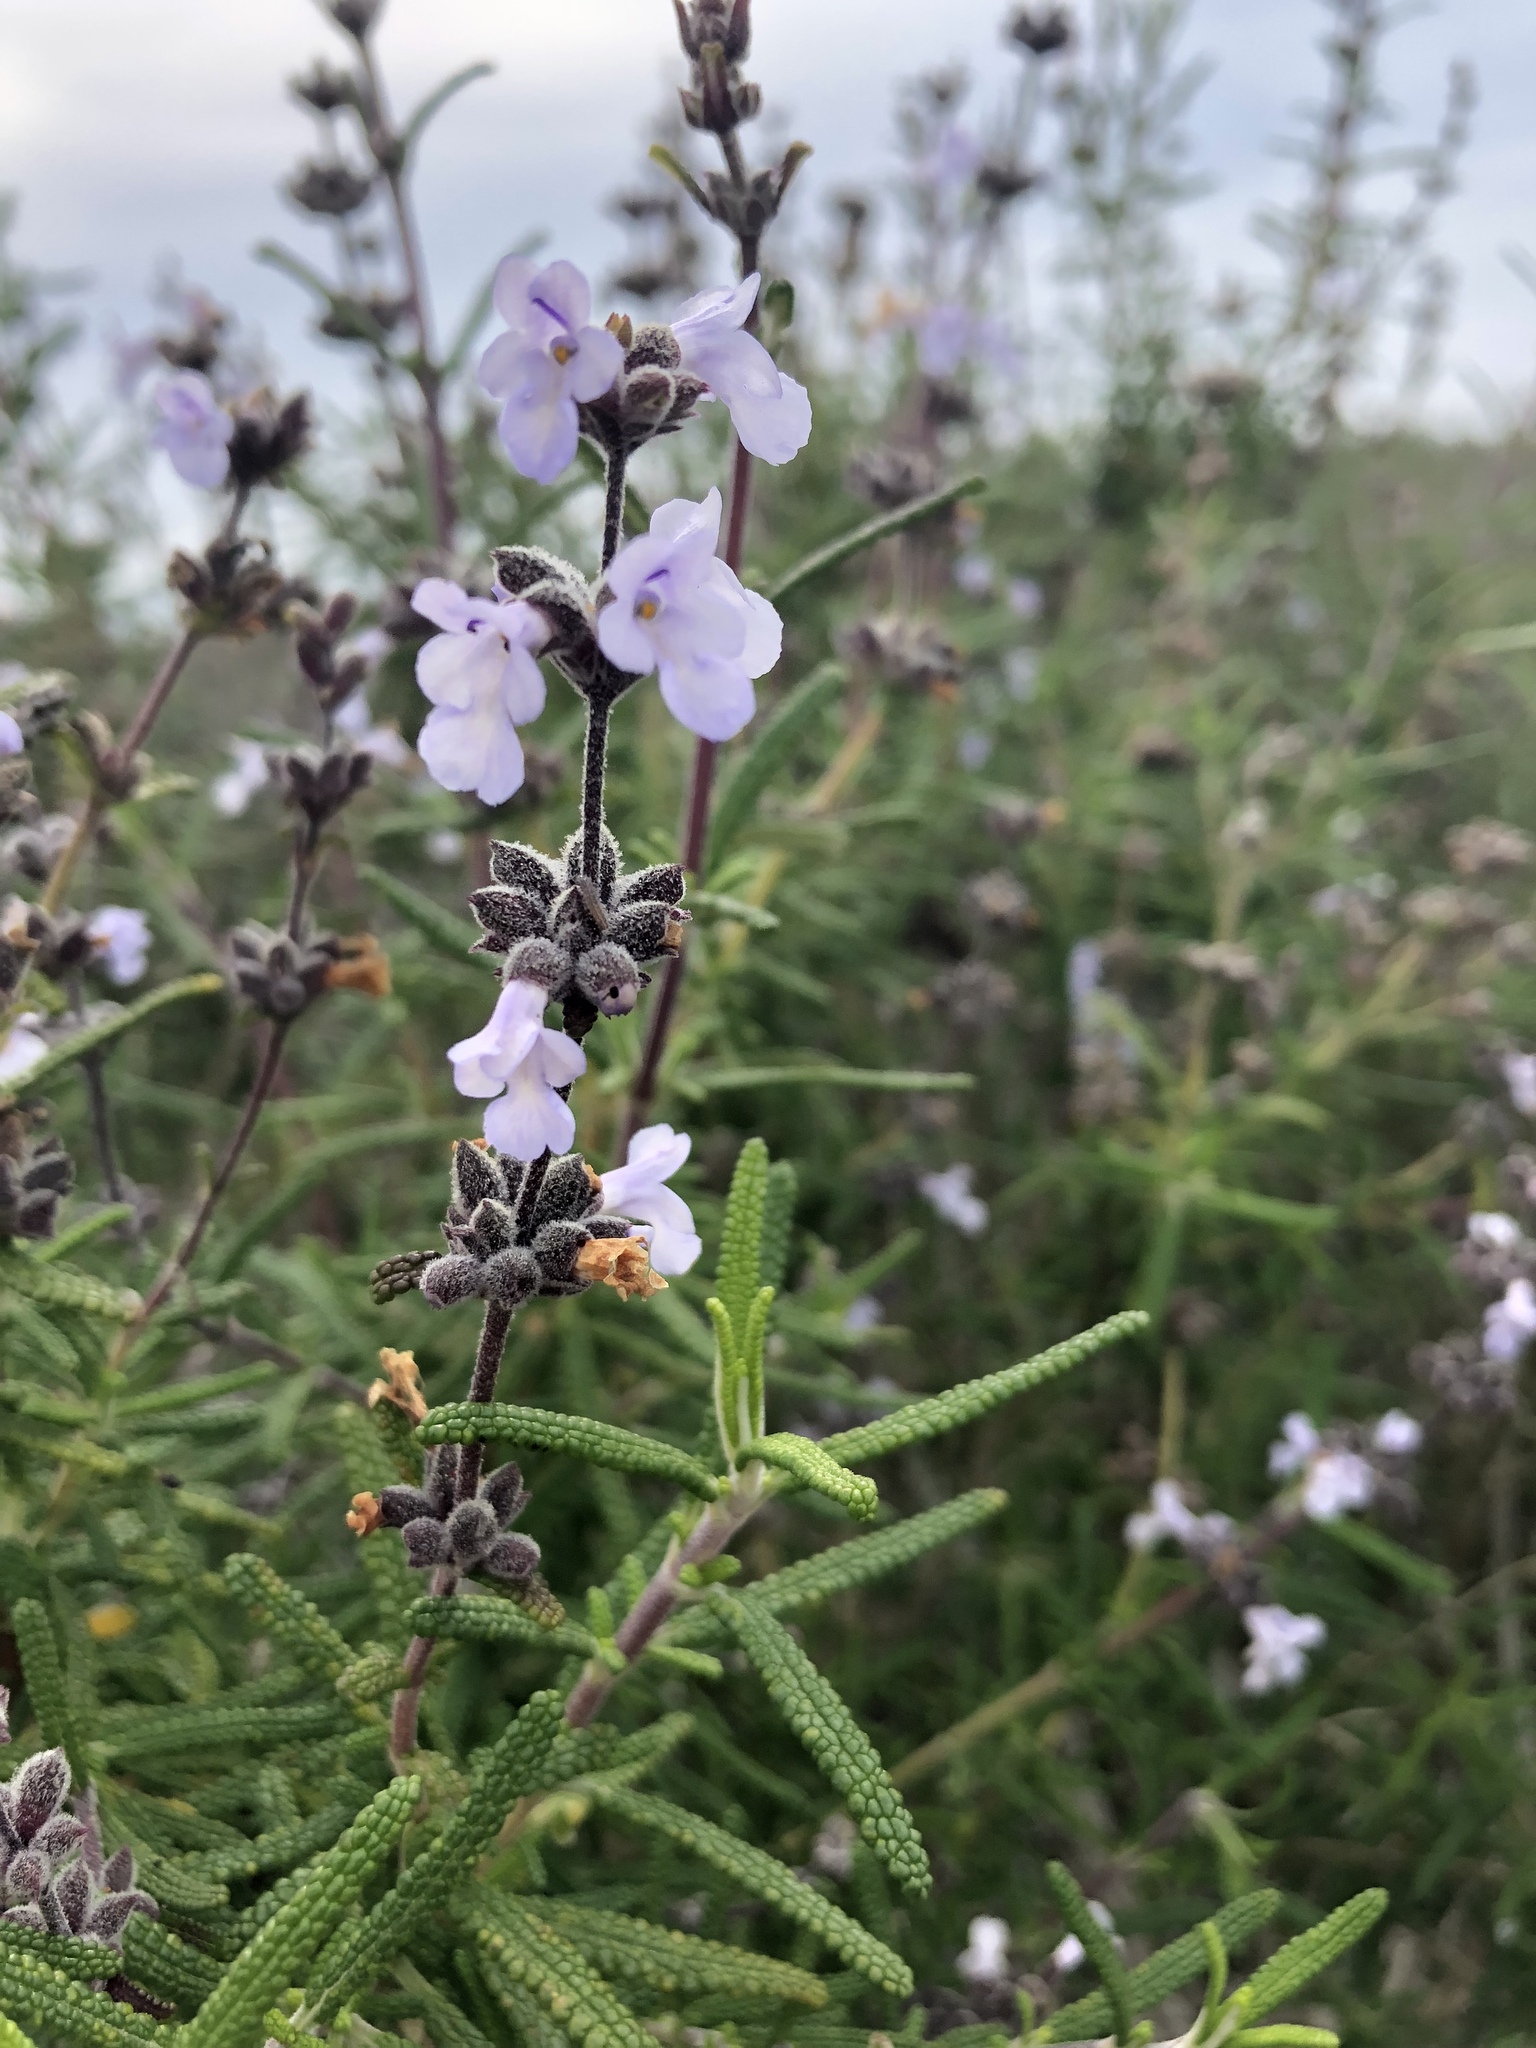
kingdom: Plantae
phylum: Tracheophyta
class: Magnoliopsida
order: Lamiales
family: Lamiaceae
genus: Salvia
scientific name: Salvia brandegeei
